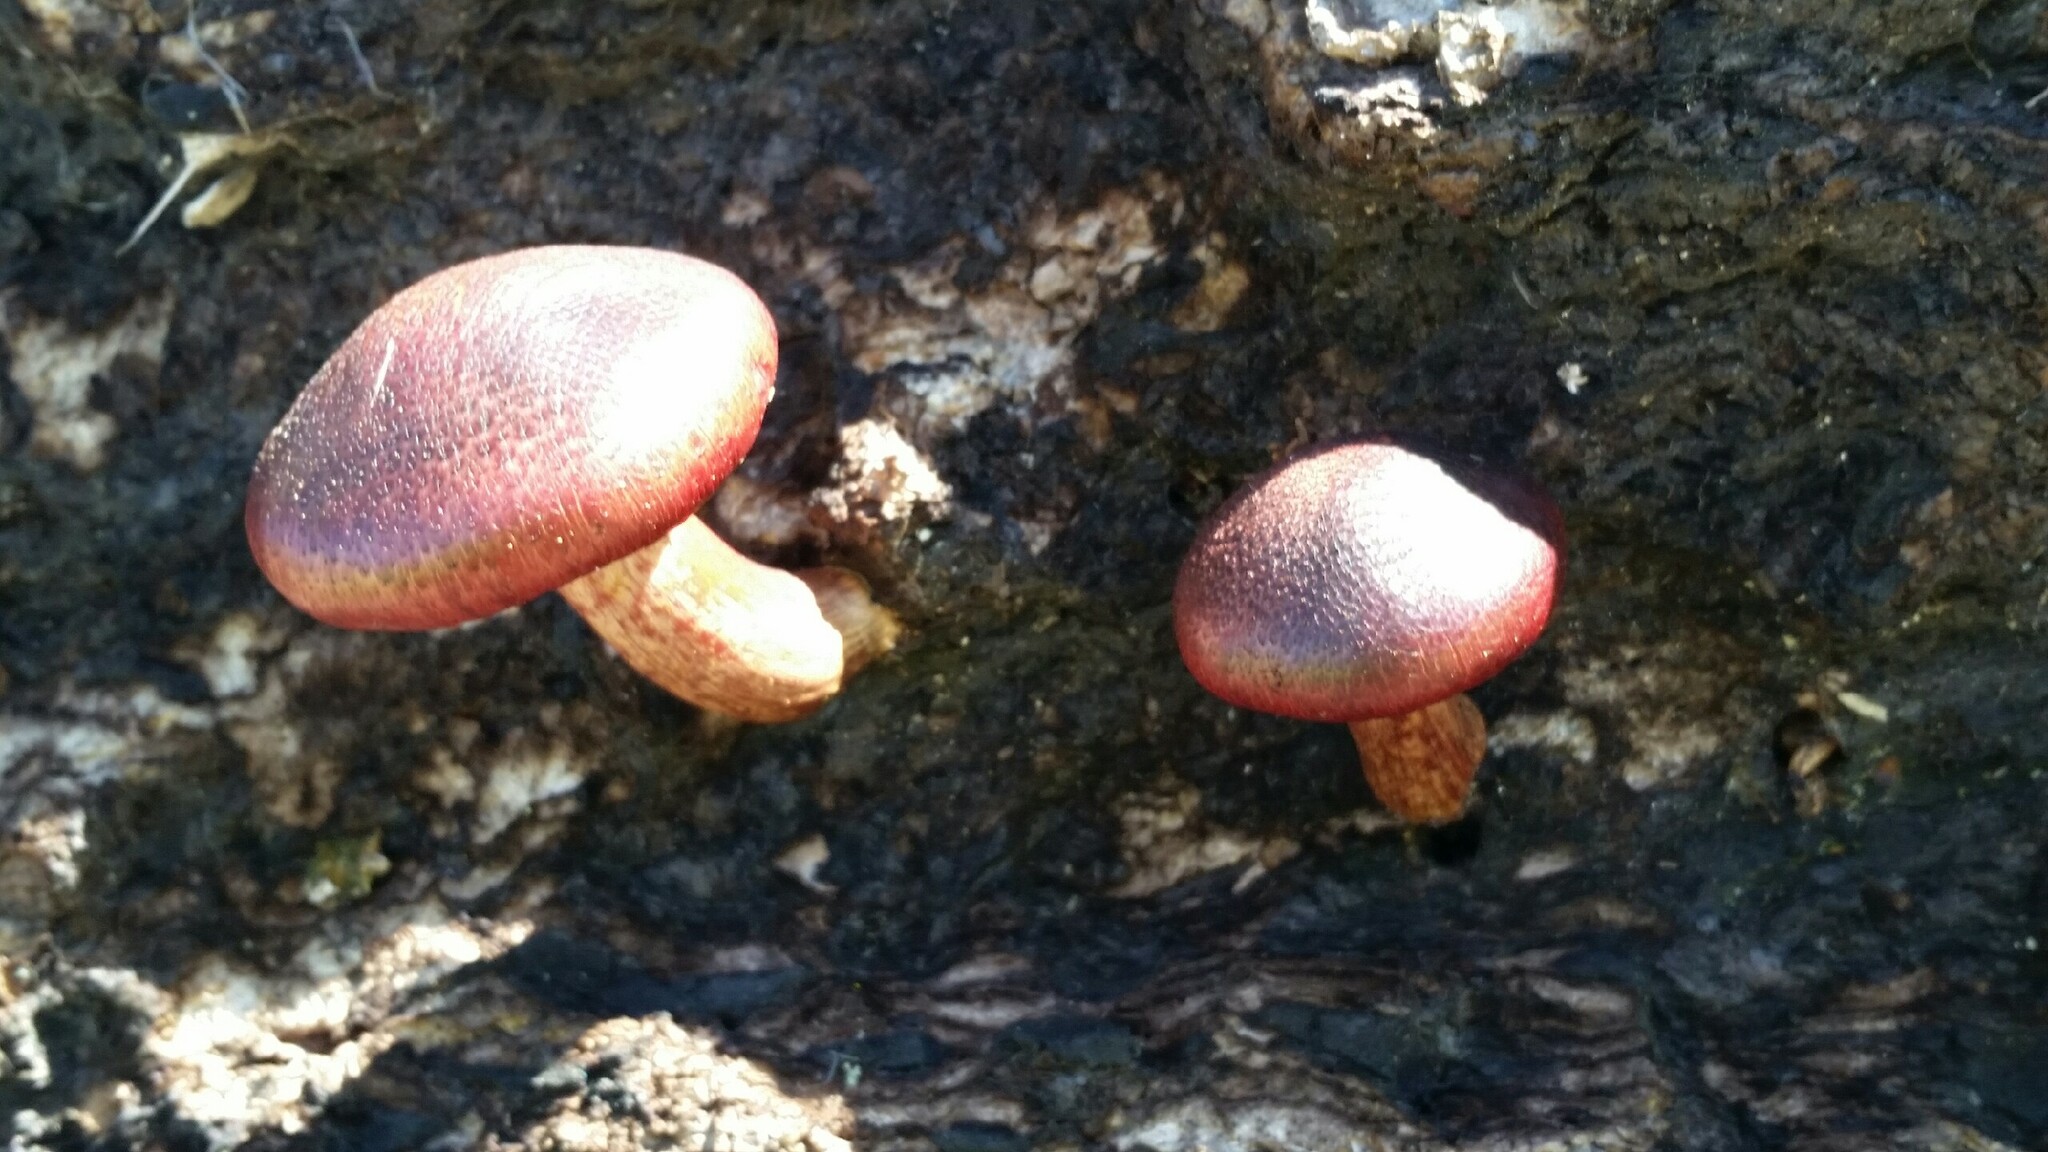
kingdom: Fungi
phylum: Basidiomycota
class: Agaricomycetes
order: Agaricales
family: Hymenogastraceae
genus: Gymnopilus
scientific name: Gymnopilus luteofolius
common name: Yellow-gilled gymnopilus
